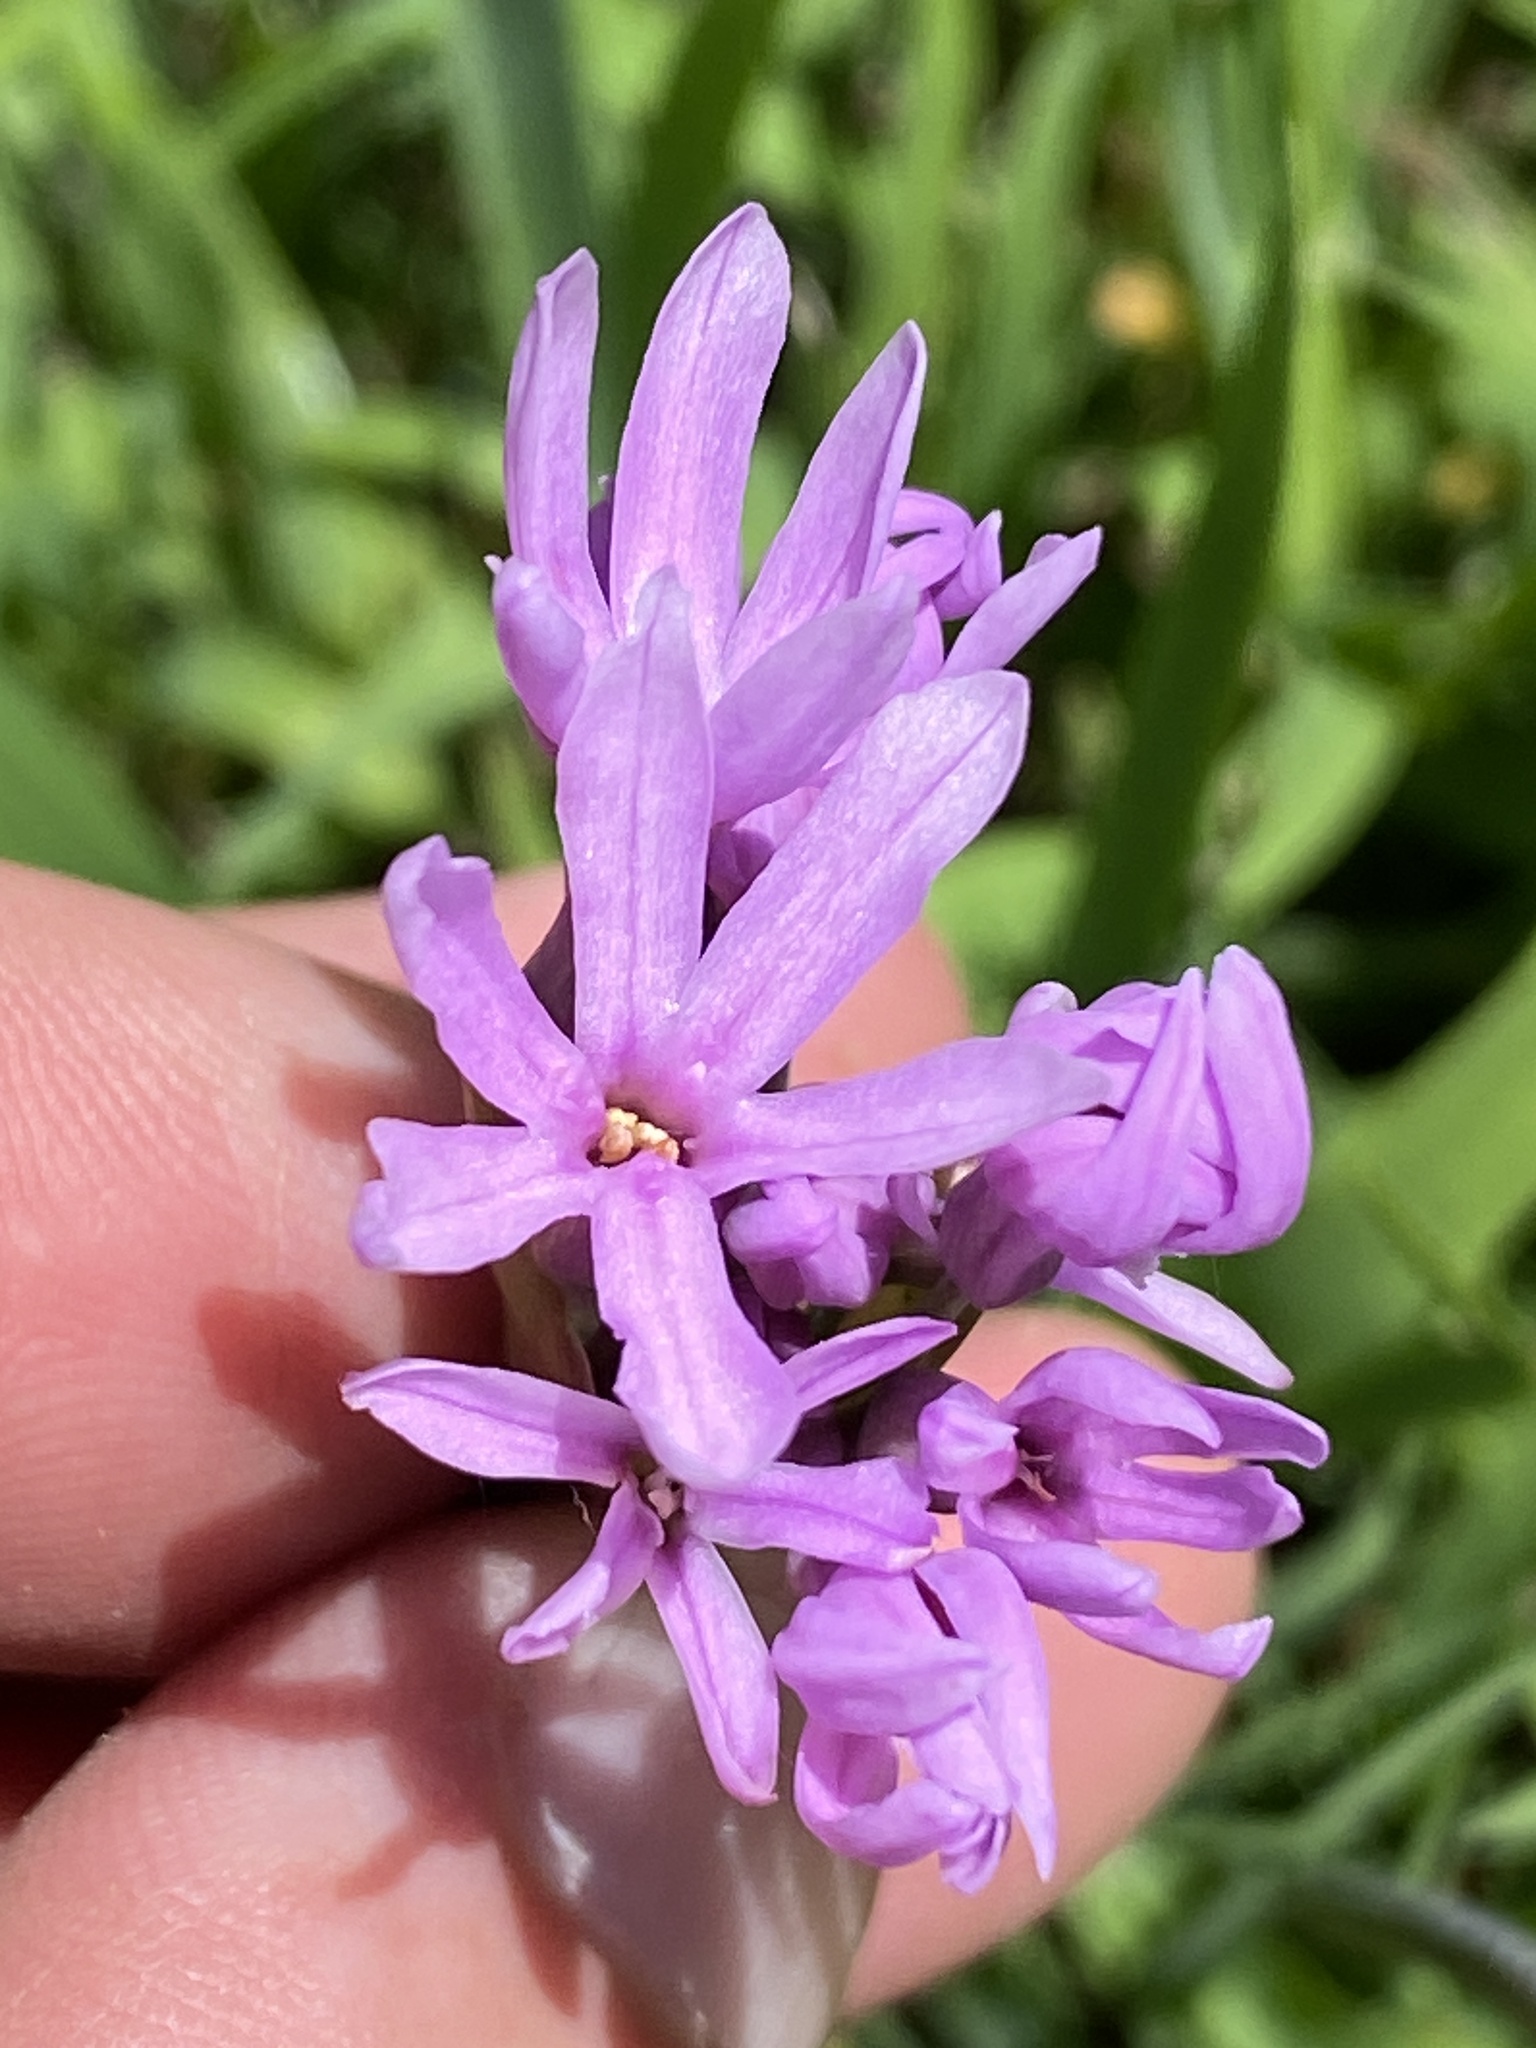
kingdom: Plantae
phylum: Tracheophyta
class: Liliopsida
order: Asparagales
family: Amaryllidaceae
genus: Tulbaghia
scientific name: Tulbaghia violacea
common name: Society garlic
